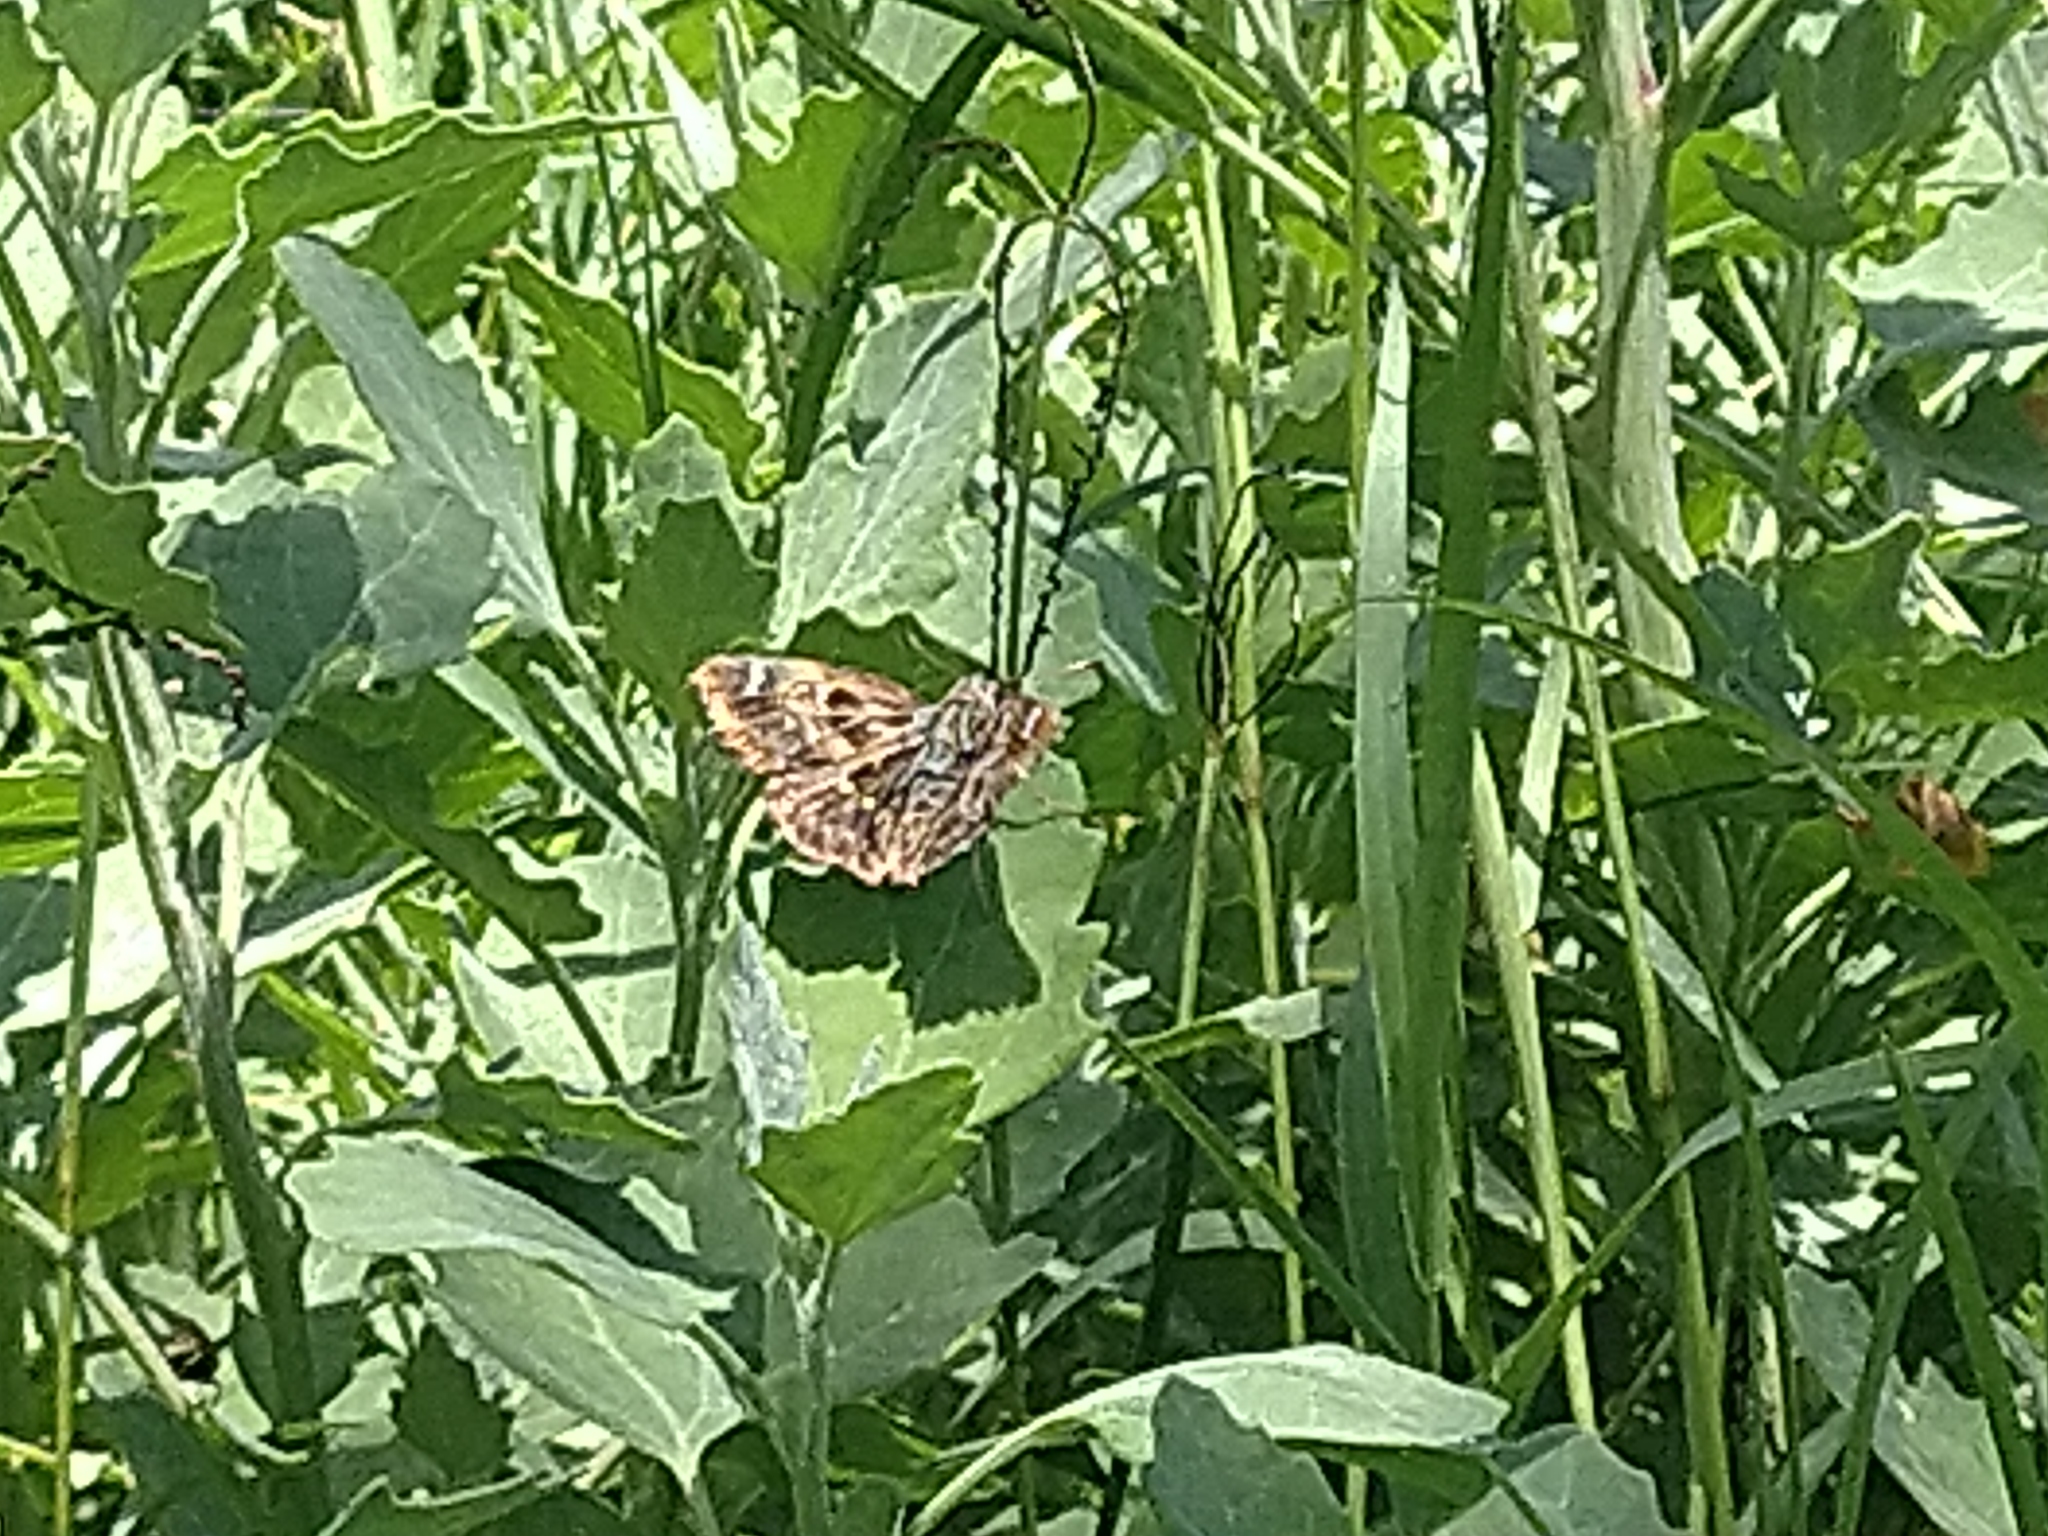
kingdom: Animalia
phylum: Arthropoda
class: Insecta
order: Lepidoptera
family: Hesperiidae
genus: Carcharodus
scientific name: Carcharodus alceae
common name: Mallow skipper
